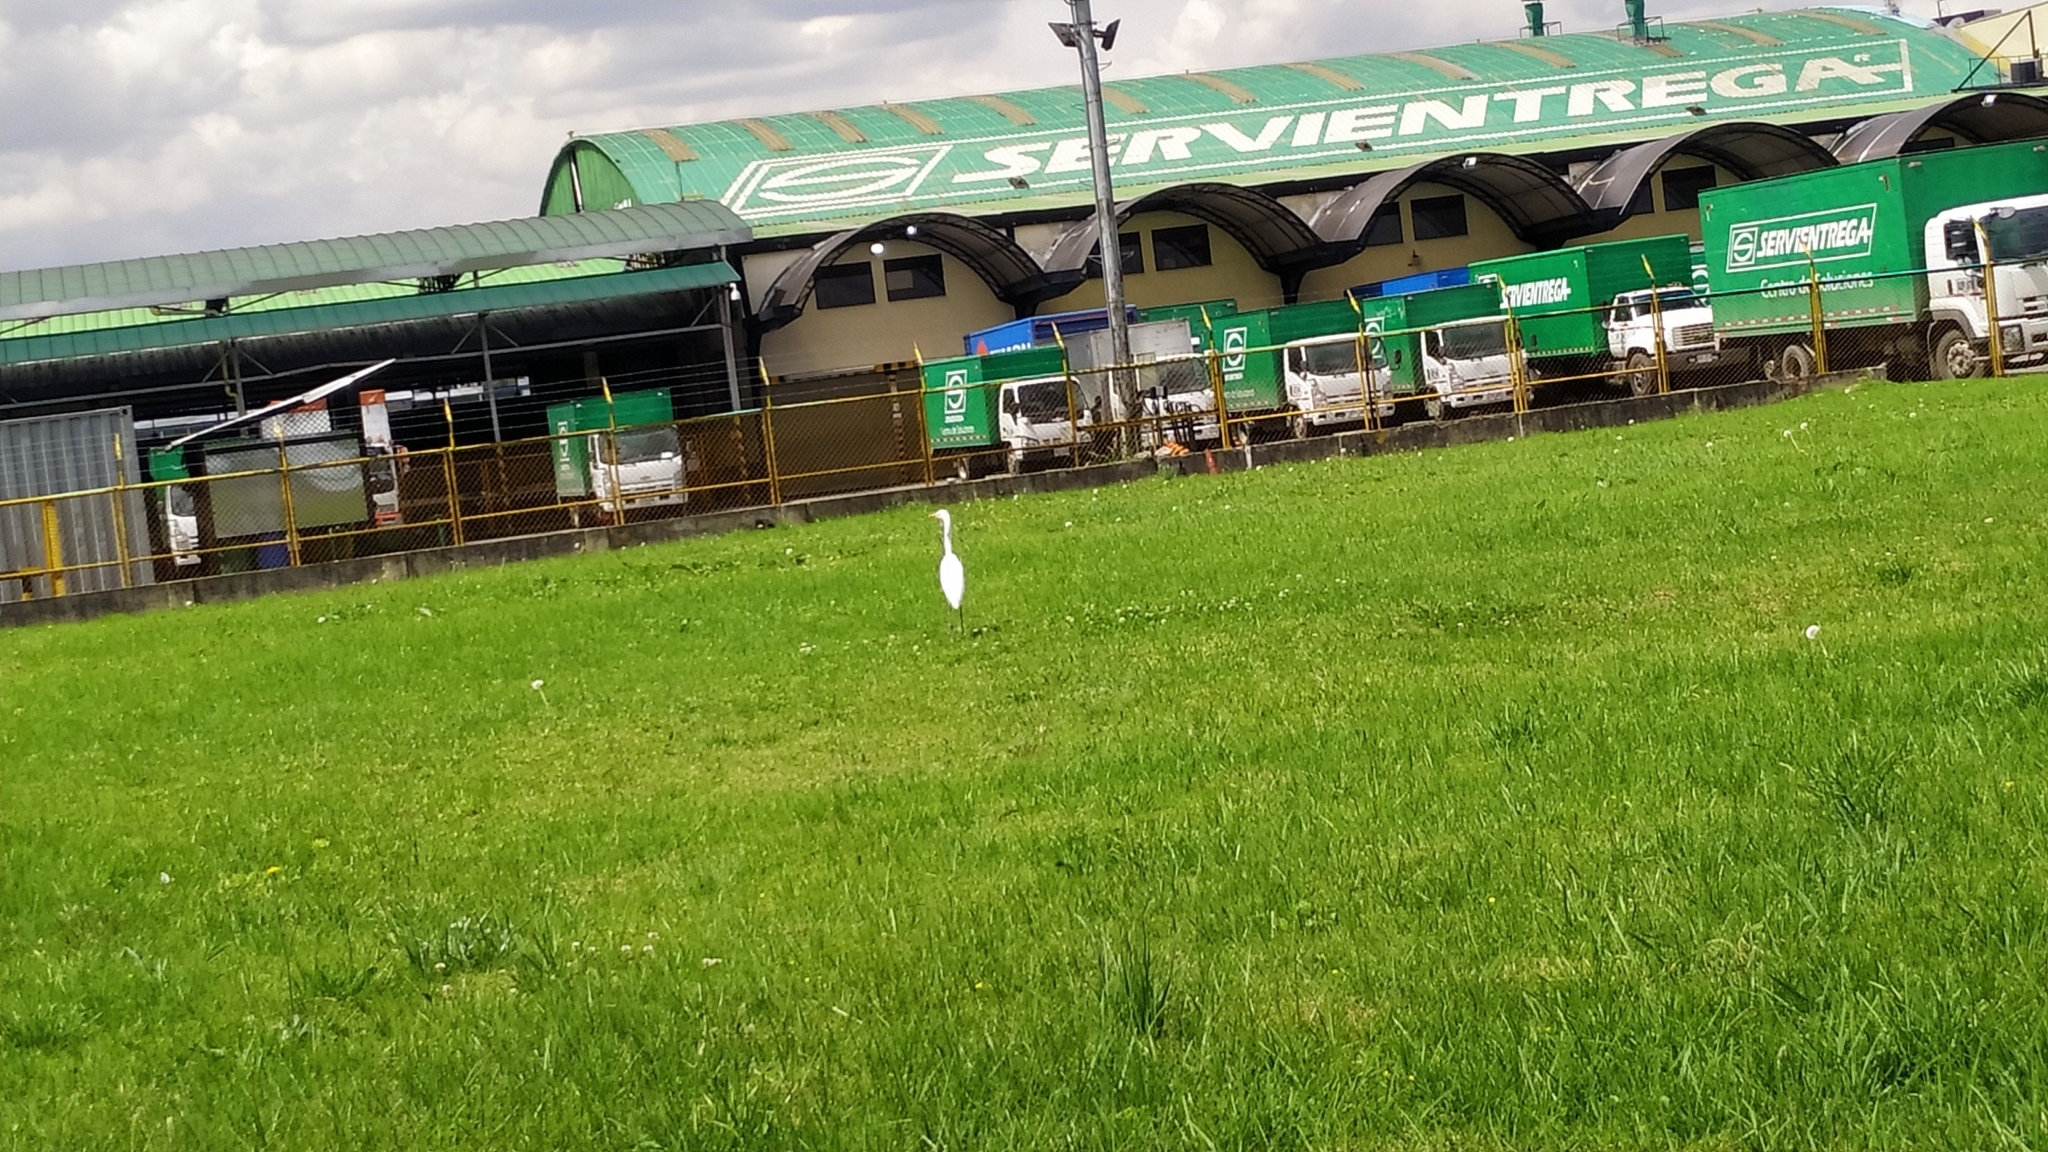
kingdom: Animalia
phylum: Chordata
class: Aves
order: Pelecaniformes
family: Ardeidae
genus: Ardea
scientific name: Ardea alba
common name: Great egret
